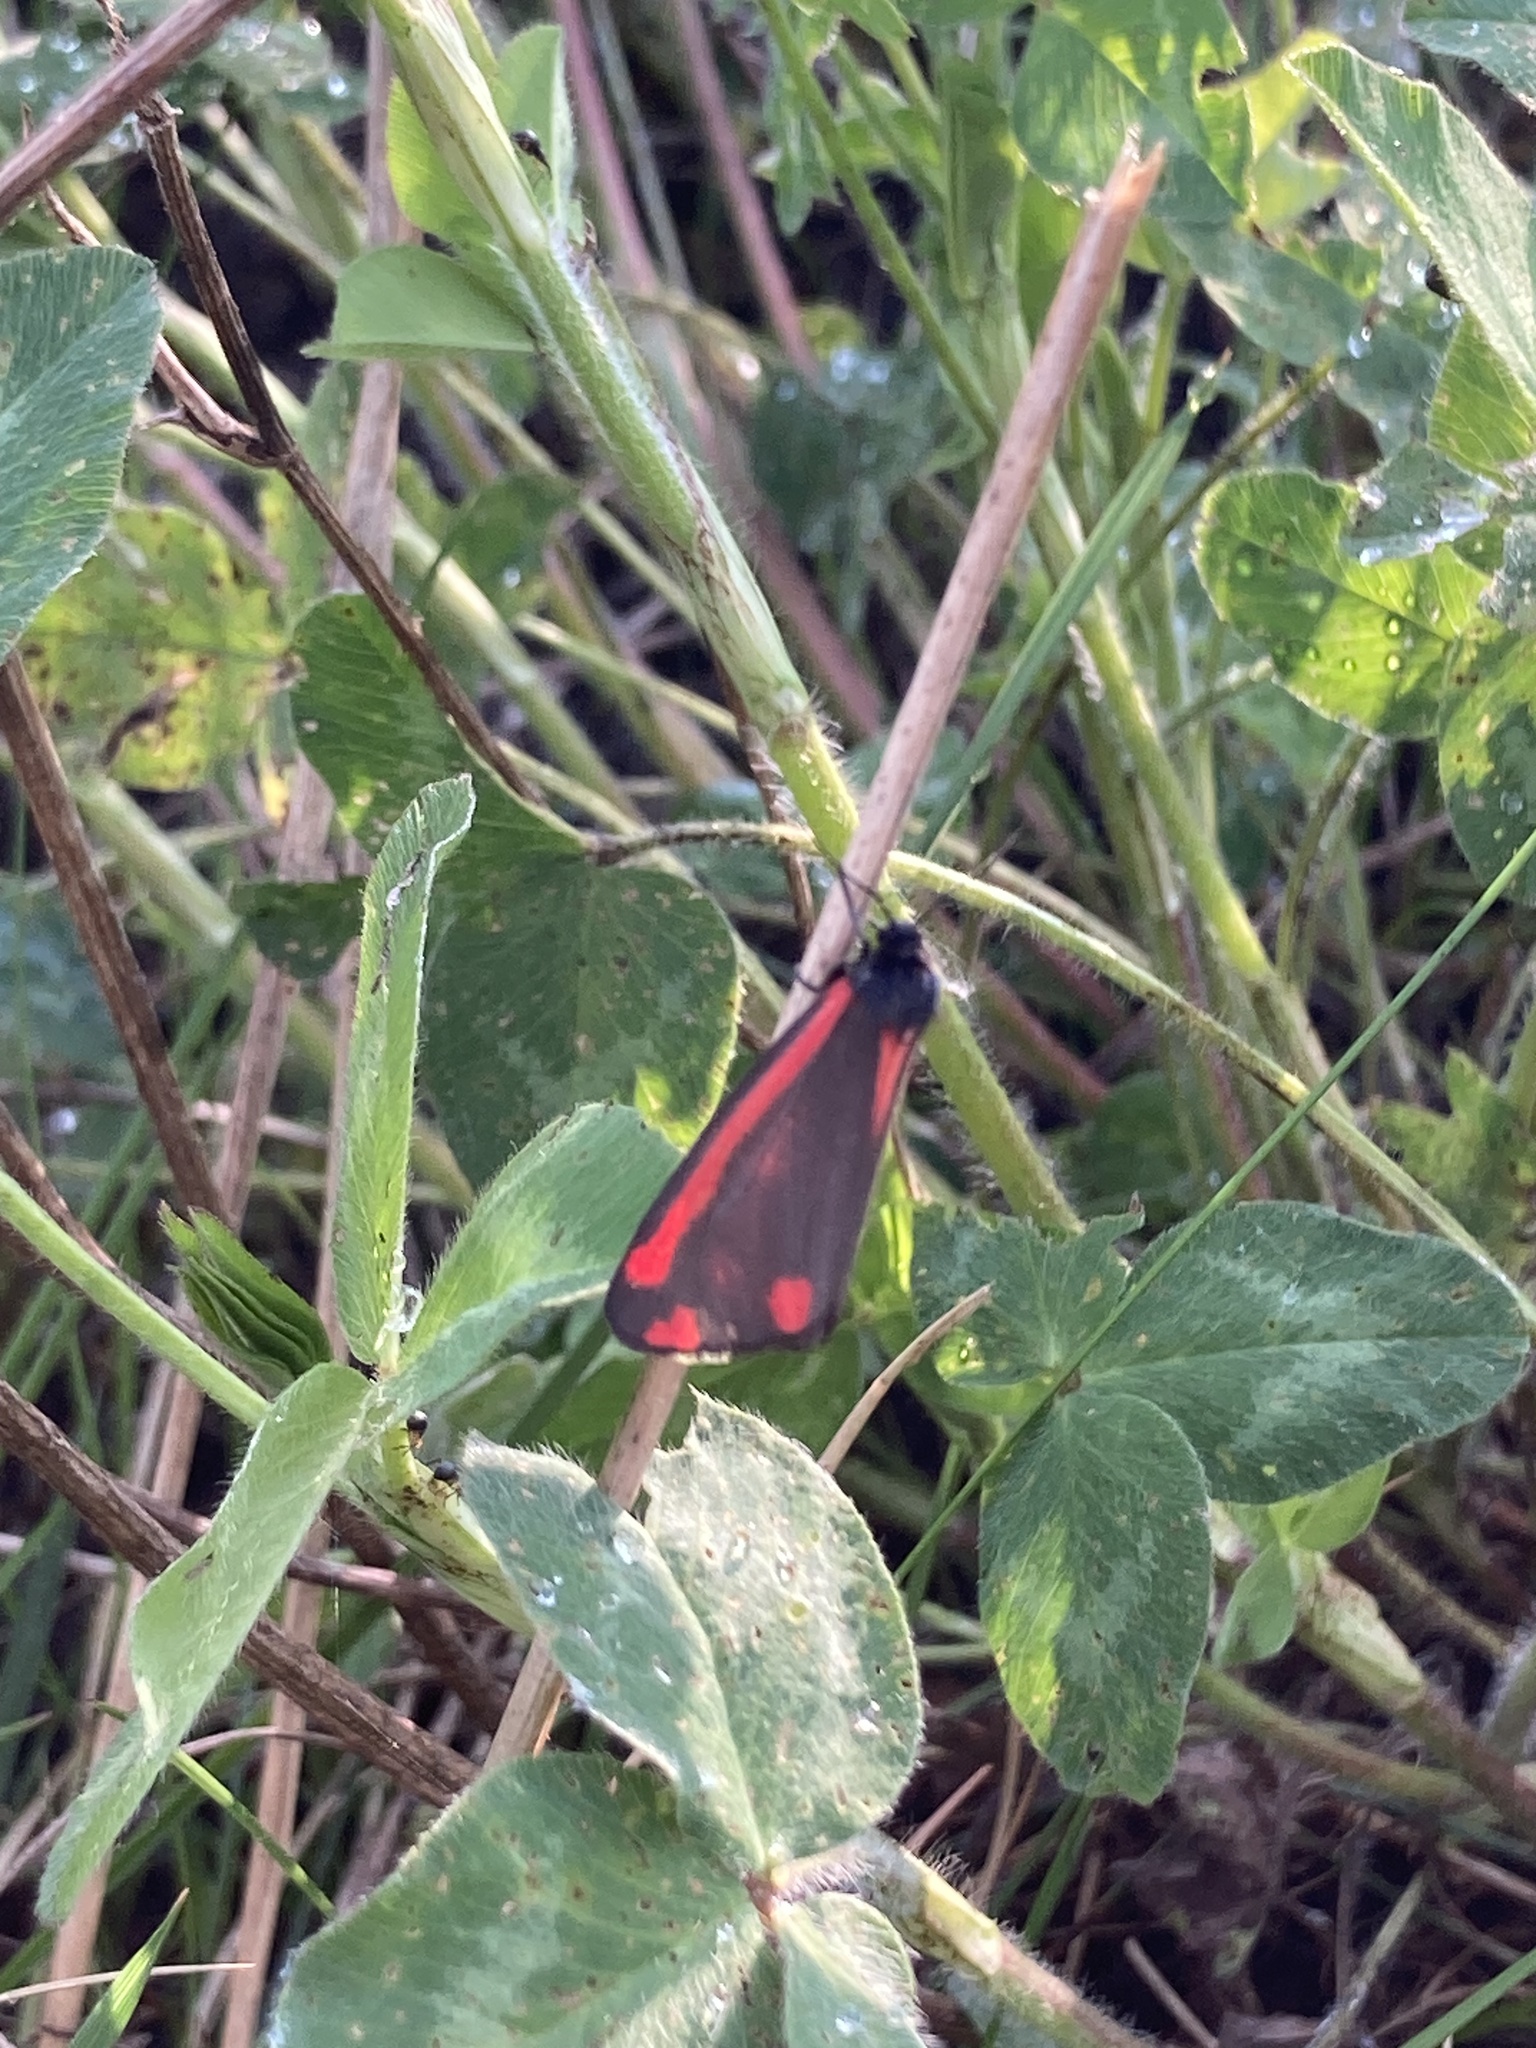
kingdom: Animalia
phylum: Arthropoda
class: Insecta
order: Lepidoptera
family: Erebidae
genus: Tyria
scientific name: Tyria jacobaeae
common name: Cinnabar
